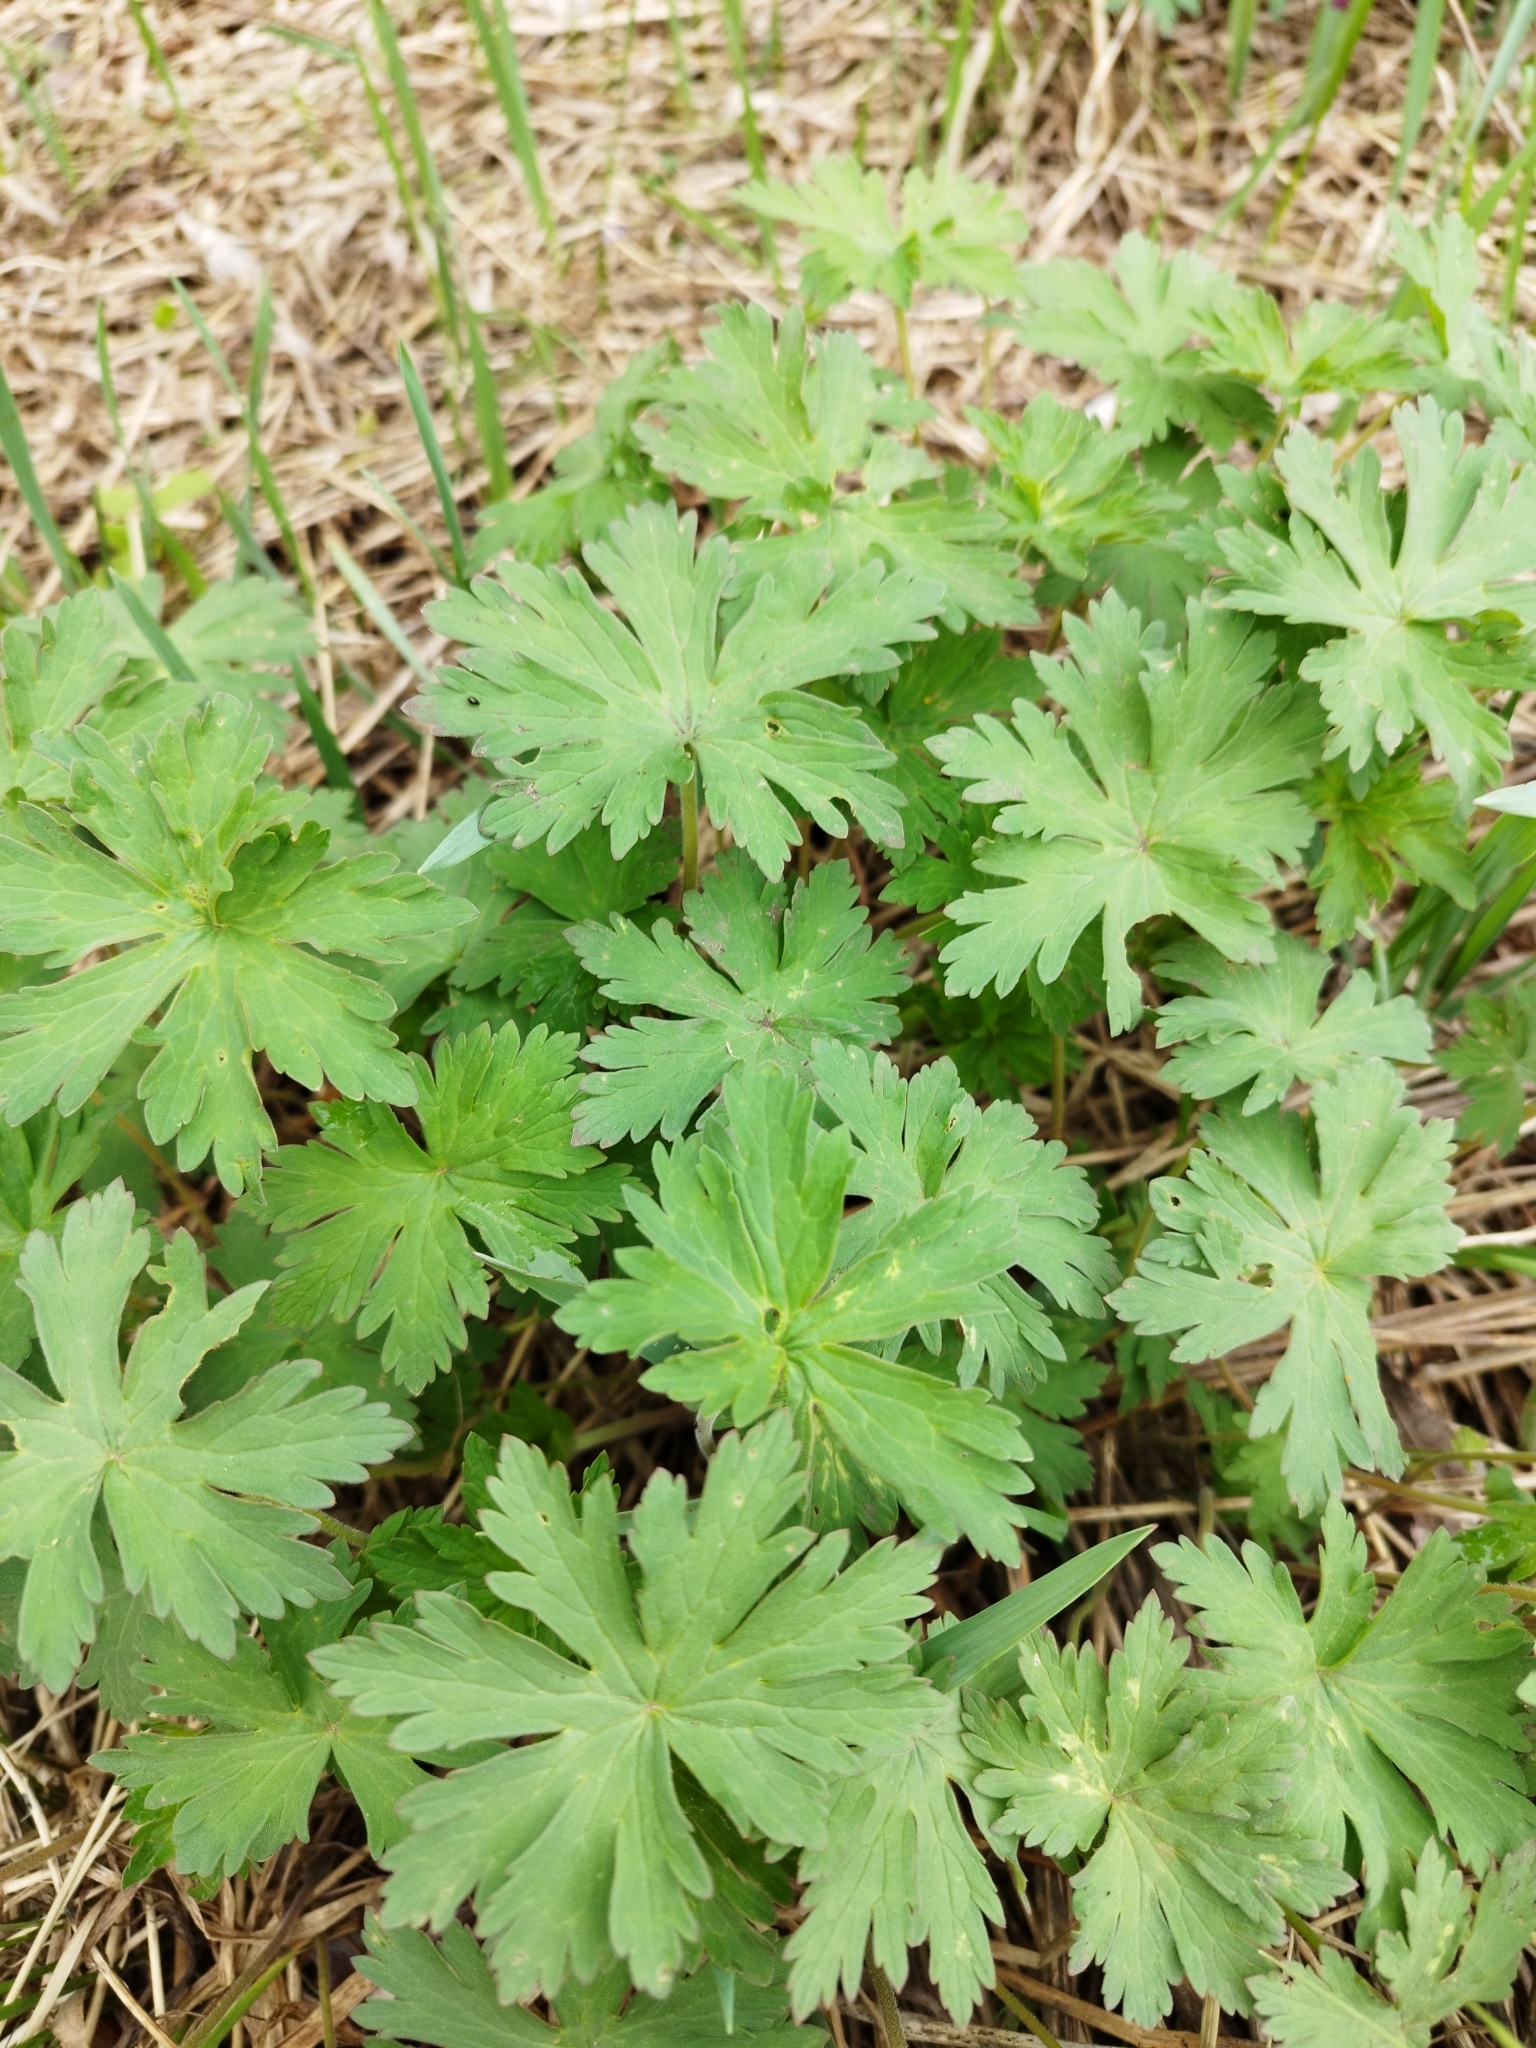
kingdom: Plantae
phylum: Tracheophyta
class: Magnoliopsida
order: Geraniales
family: Geraniaceae
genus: Geranium
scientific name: Geranium sylvaticum
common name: Wood crane's-bill
